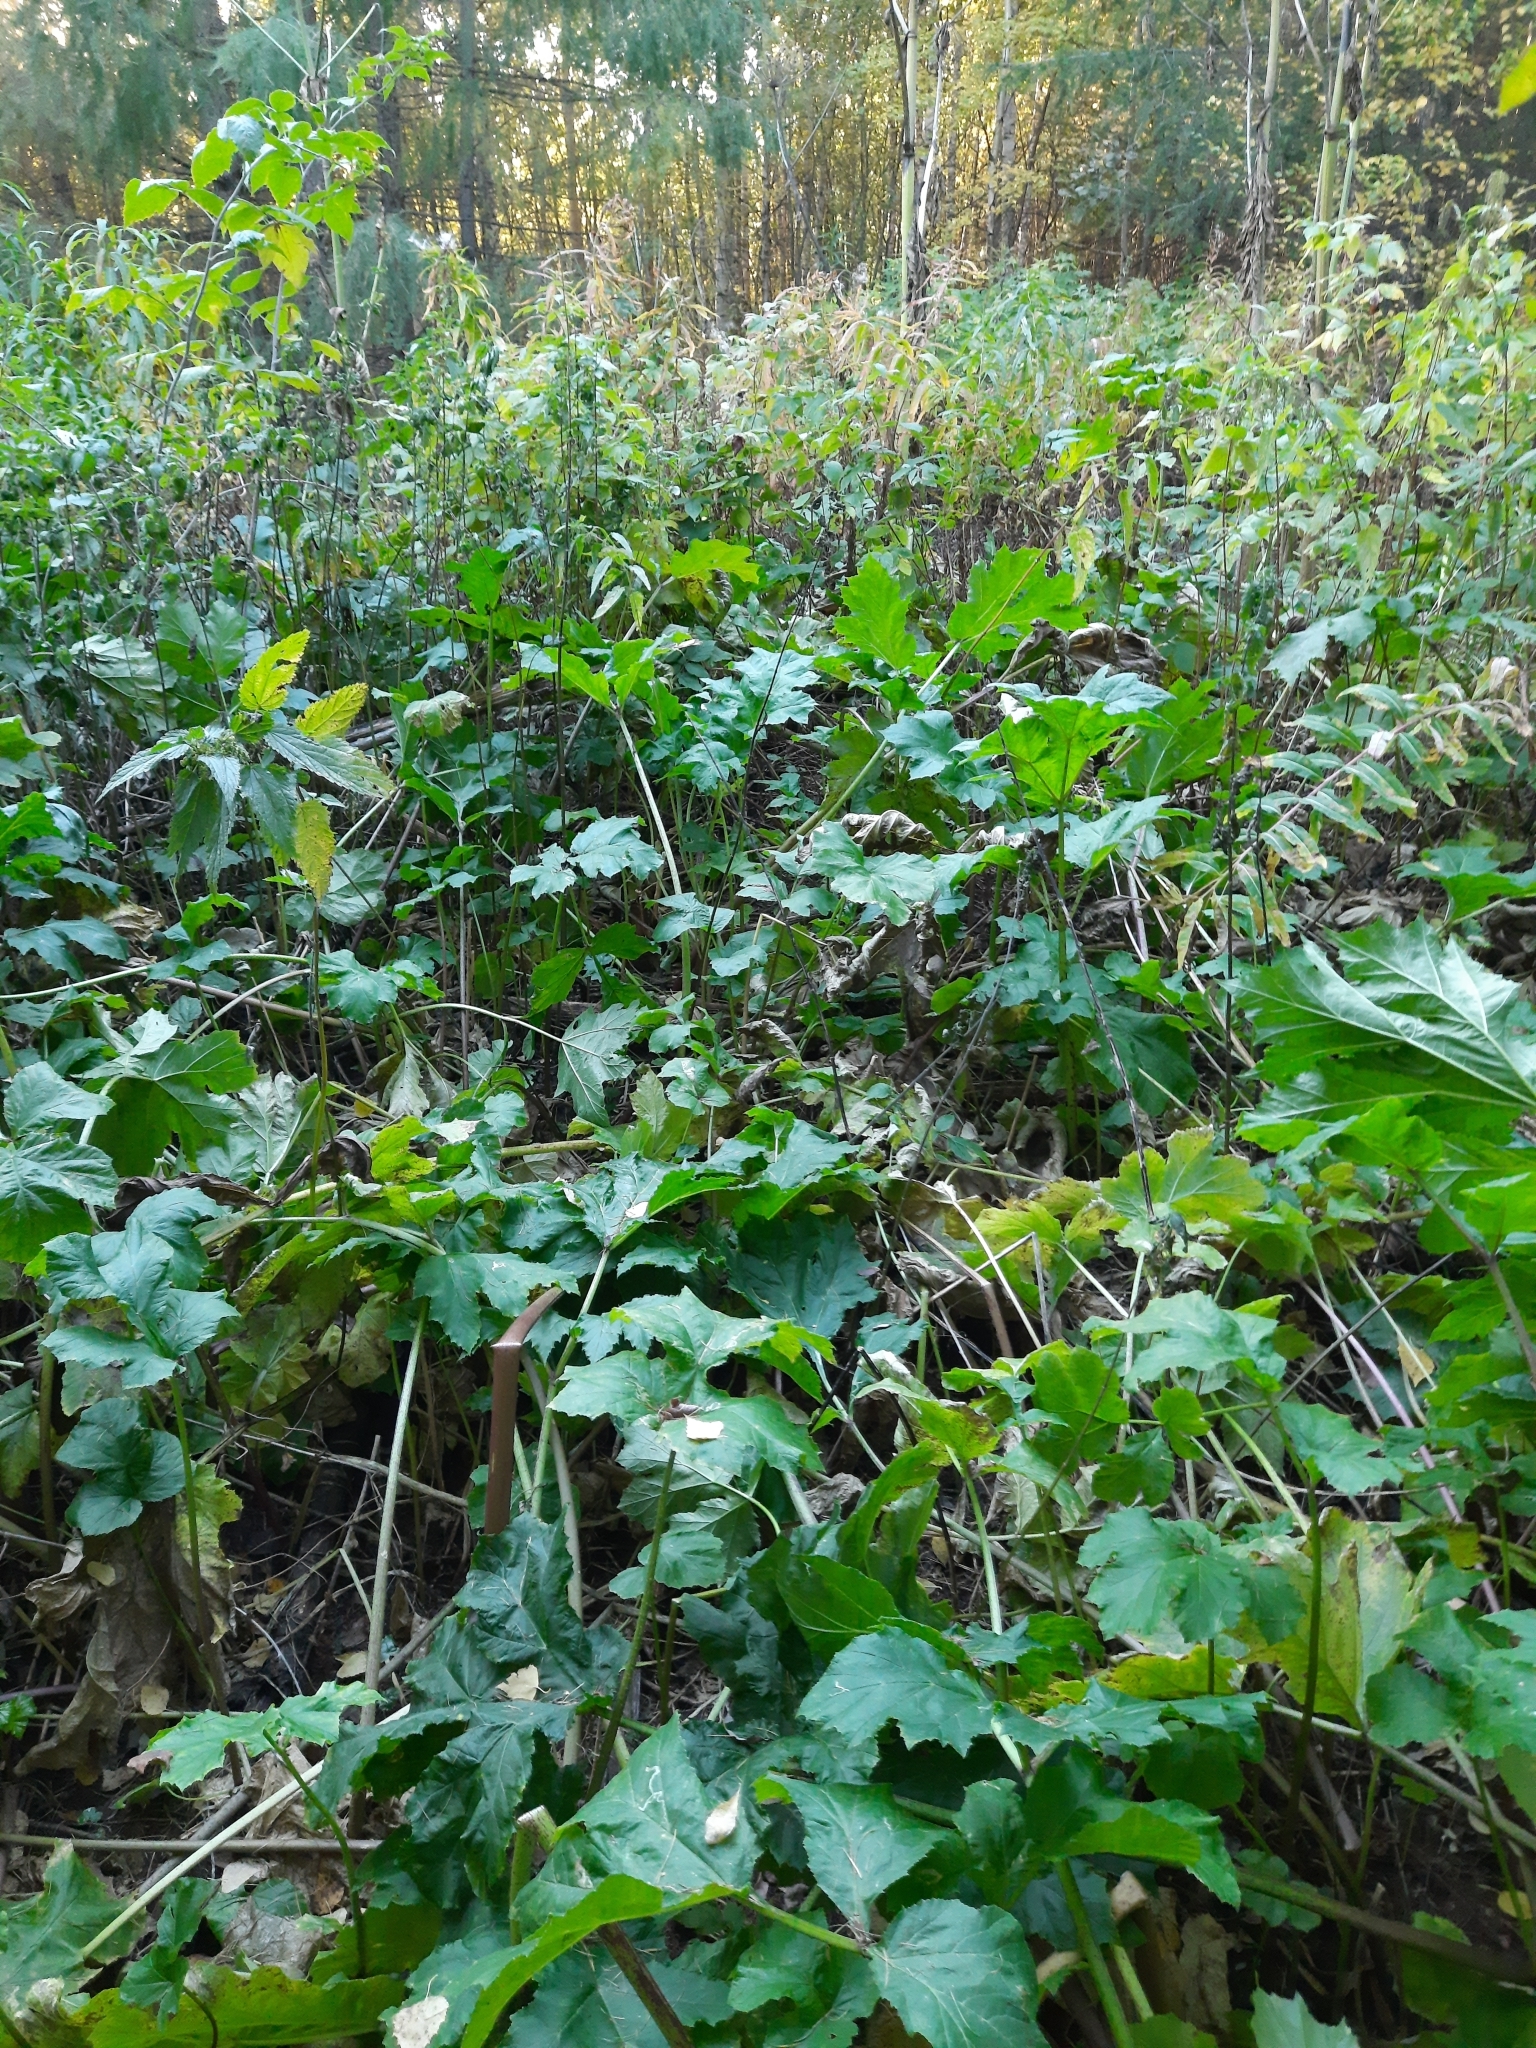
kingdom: Plantae
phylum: Tracheophyta
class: Magnoliopsida
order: Apiales
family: Apiaceae
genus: Heracleum
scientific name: Heracleum sosnowskyi
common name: Sosnowsky's hogweed
